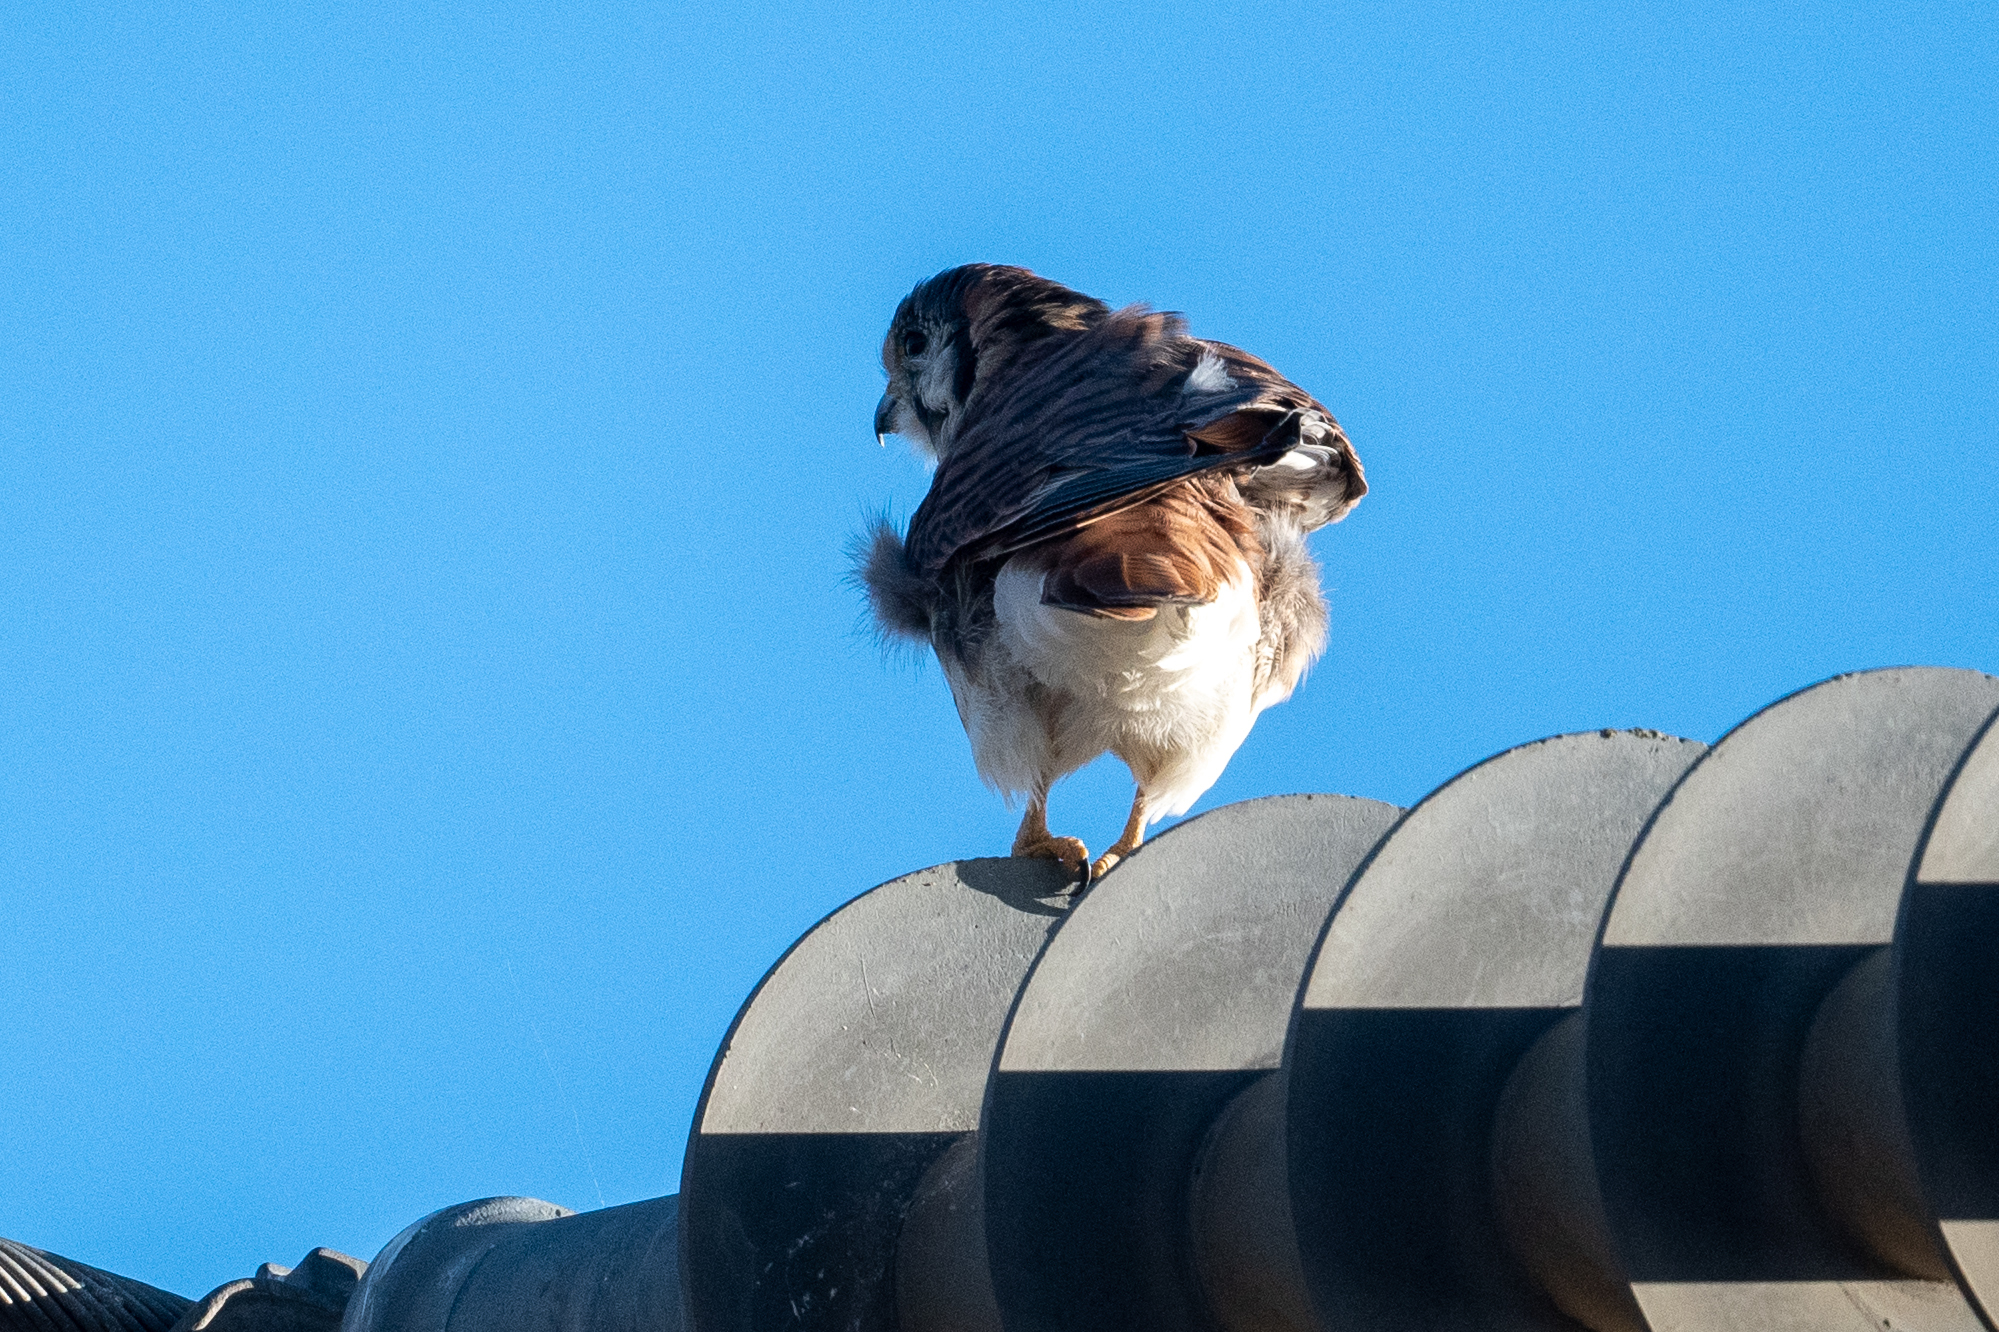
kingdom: Animalia
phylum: Chordata
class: Aves
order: Falconiformes
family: Falconidae
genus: Falco
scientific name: Falco sparverius
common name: American kestrel
